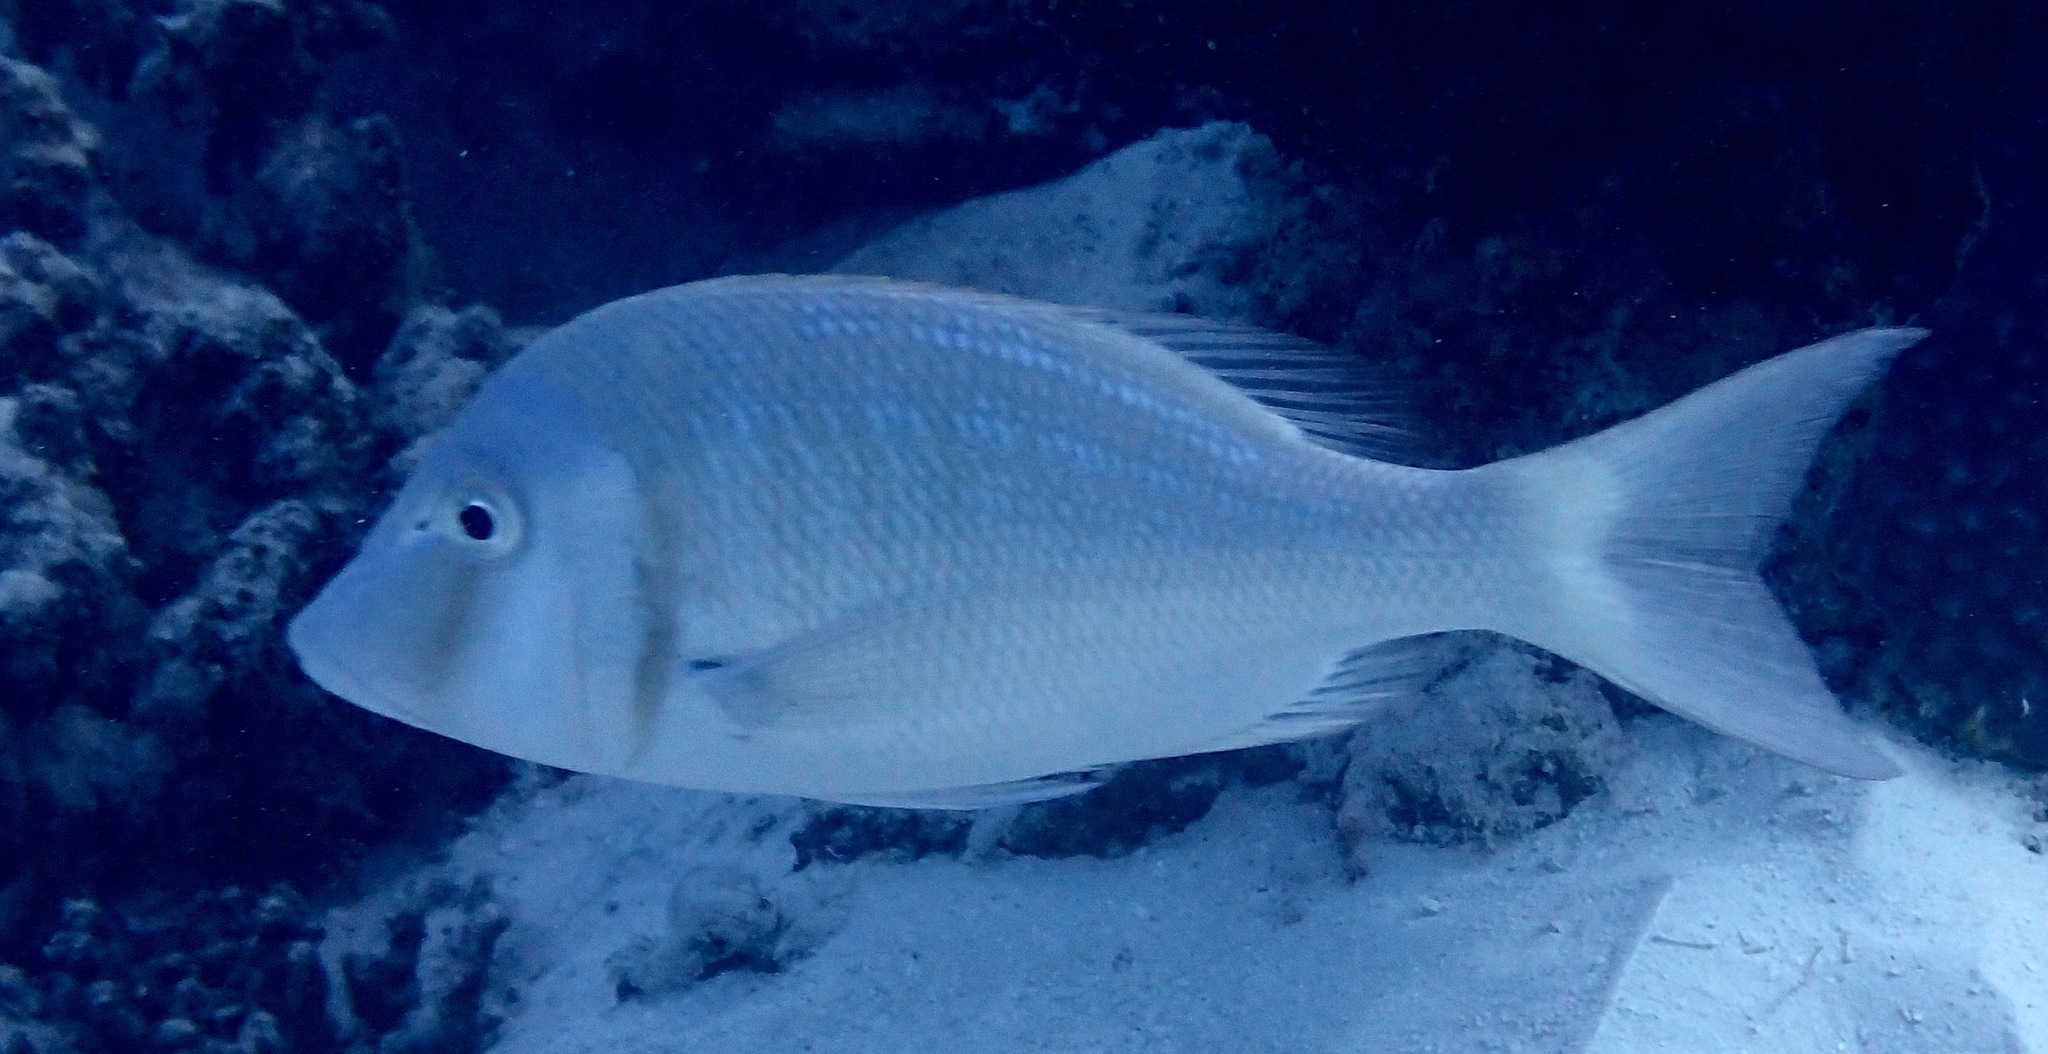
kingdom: Animalia
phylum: Chordata
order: Perciformes
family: Lethrinidae
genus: Lethrinus
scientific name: Lethrinus nebulosus
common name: Spangled emperor
